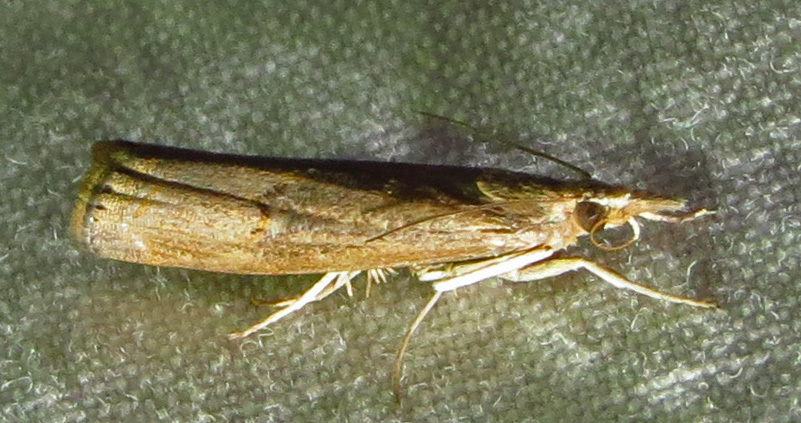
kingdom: Animalia
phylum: Arthropoda
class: Insecta
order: Lepidoptera
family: Crambidae
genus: Parapediasia
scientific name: Parapediasia teterellus
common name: Bluegrass webworm moth
